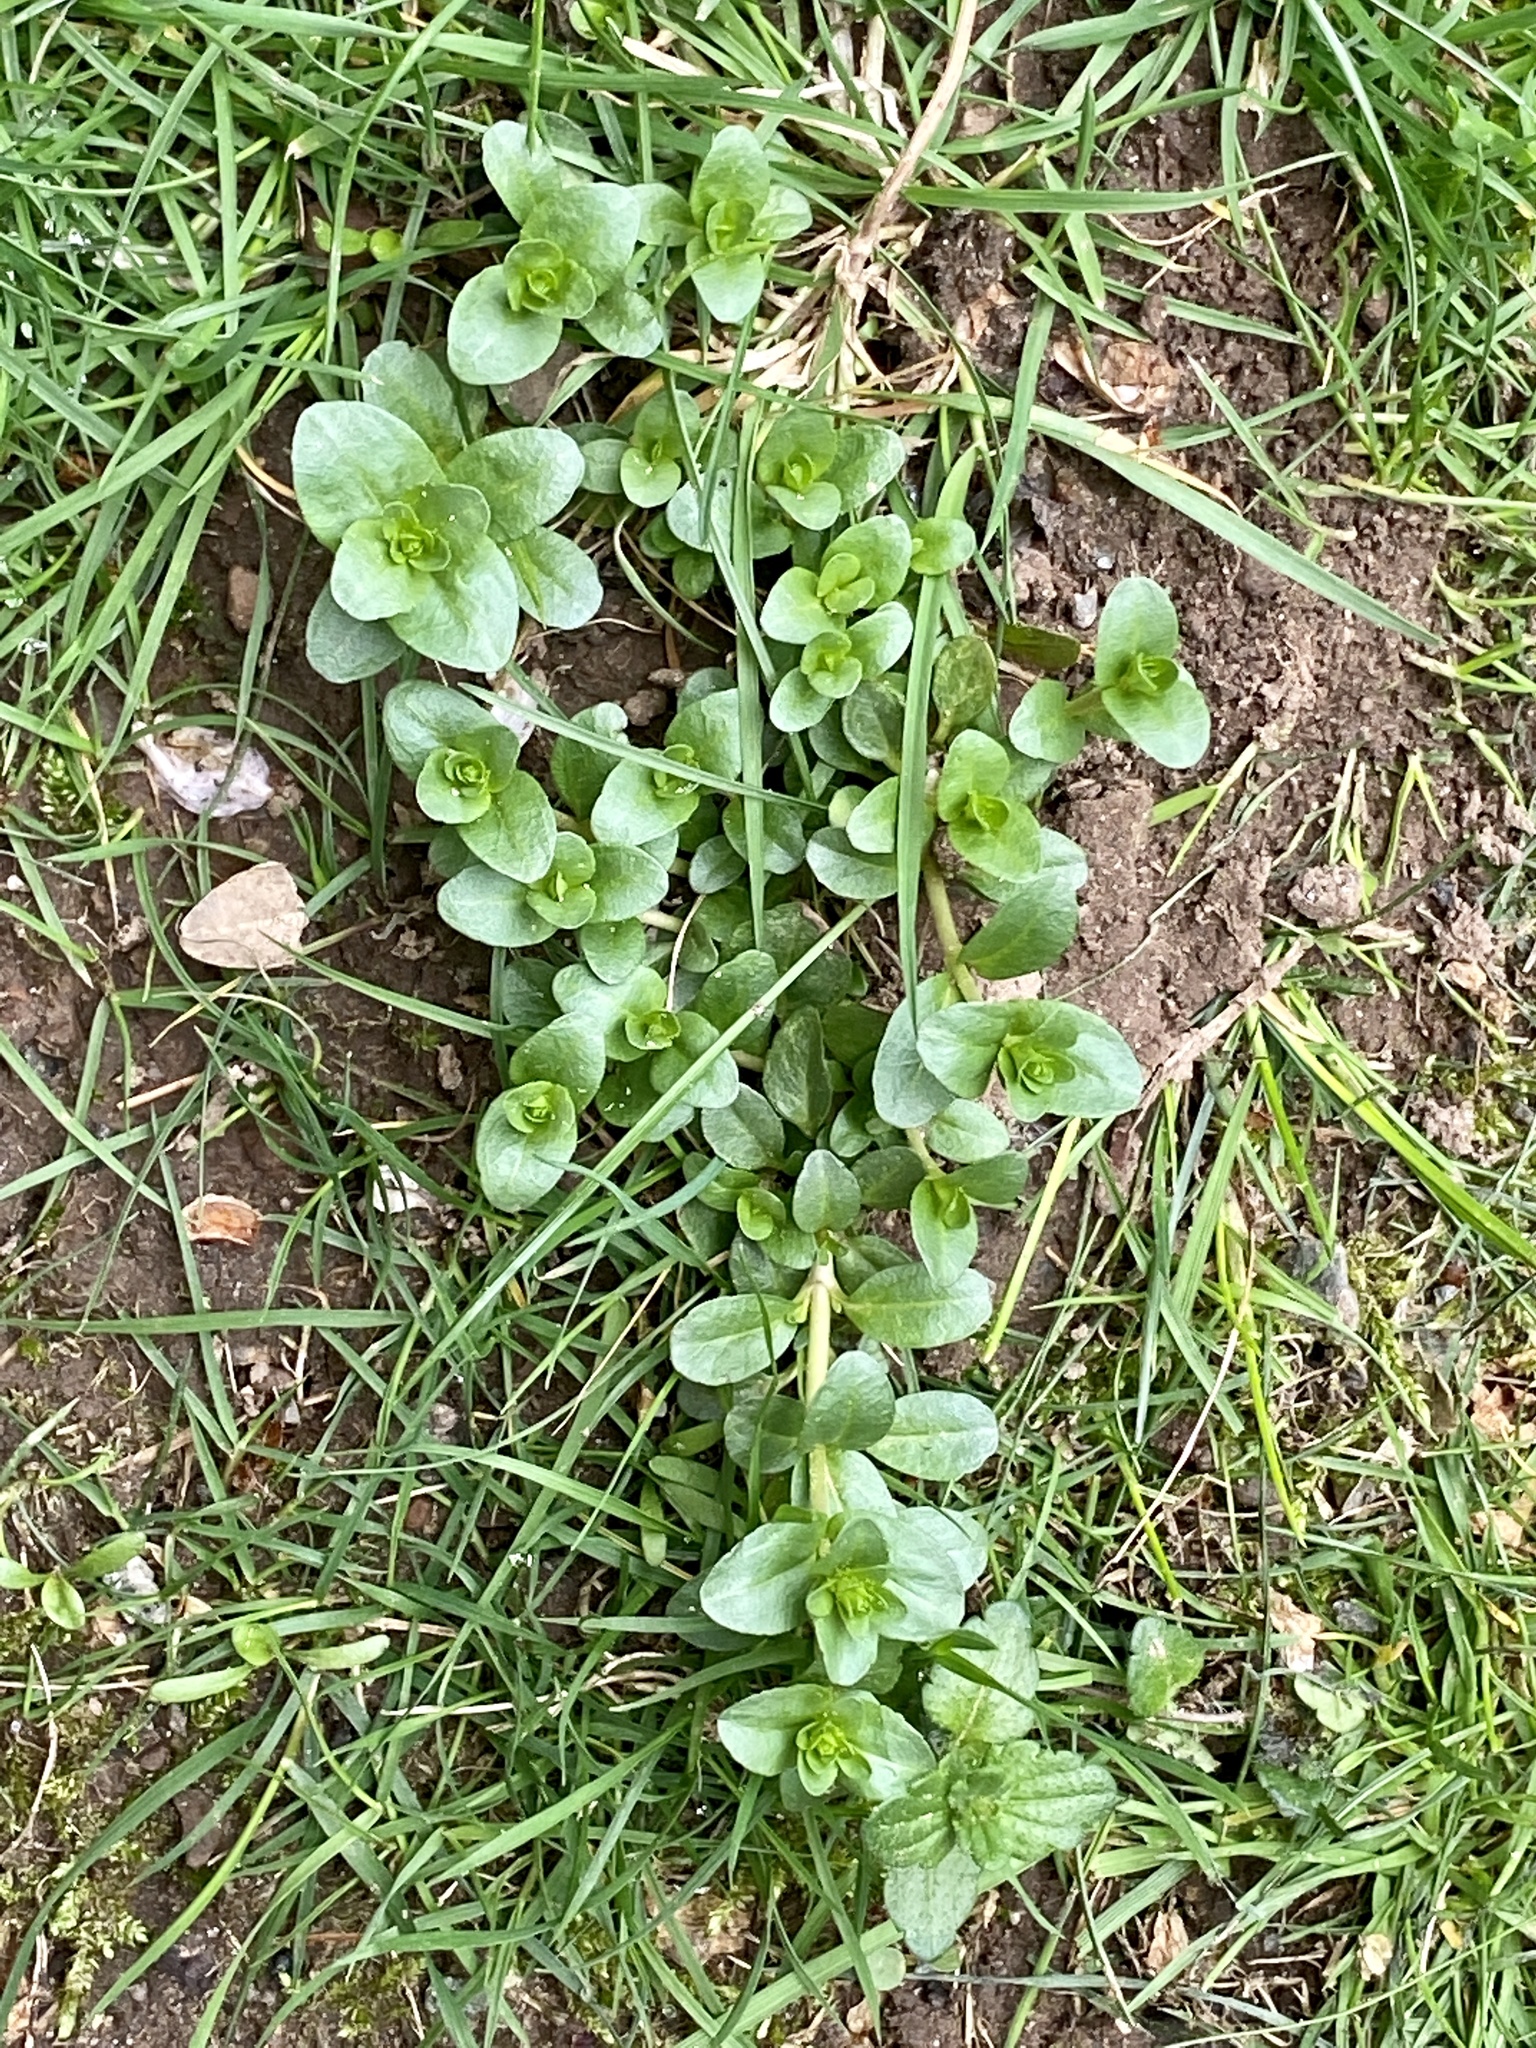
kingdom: Plantae
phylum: Tracheophyta
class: Magnoliopsida
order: Lamiales
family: Plantaginaceae
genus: Veronica
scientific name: Veronica serpyllifolia
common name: Thyme-leaved speedwell
